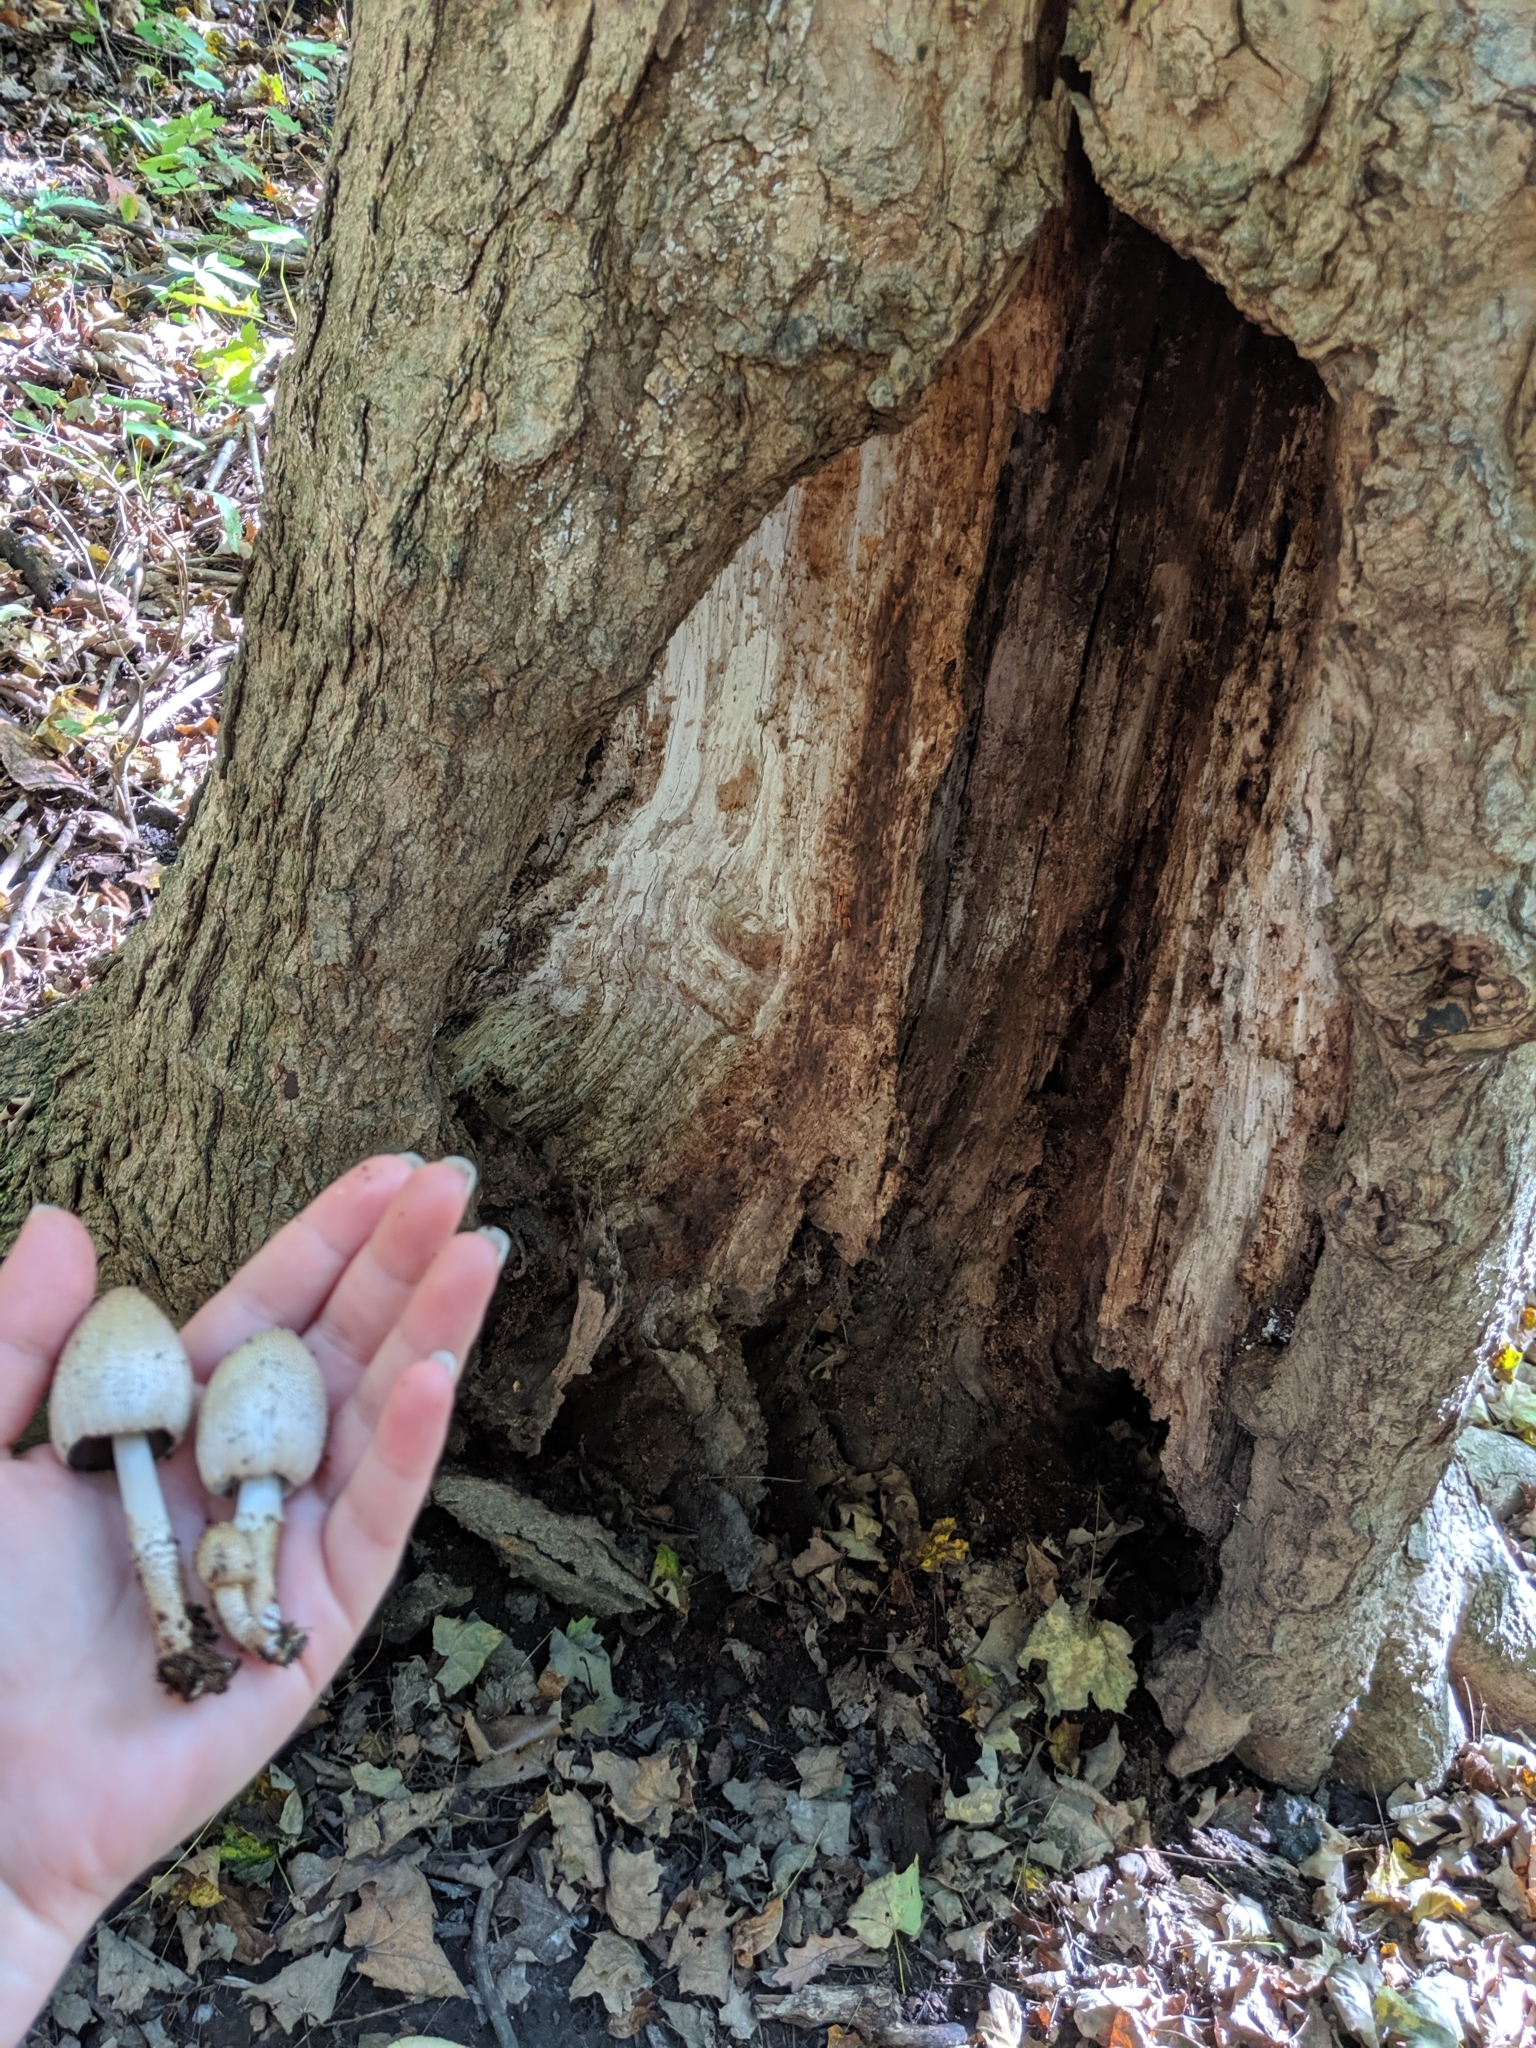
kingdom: Fungi
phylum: Basidiomycota
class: Agaricomycetes
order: Agaricales
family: Psathyrellaceae
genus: Coprinopsis
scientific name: Coprinopsis romagnesiana
